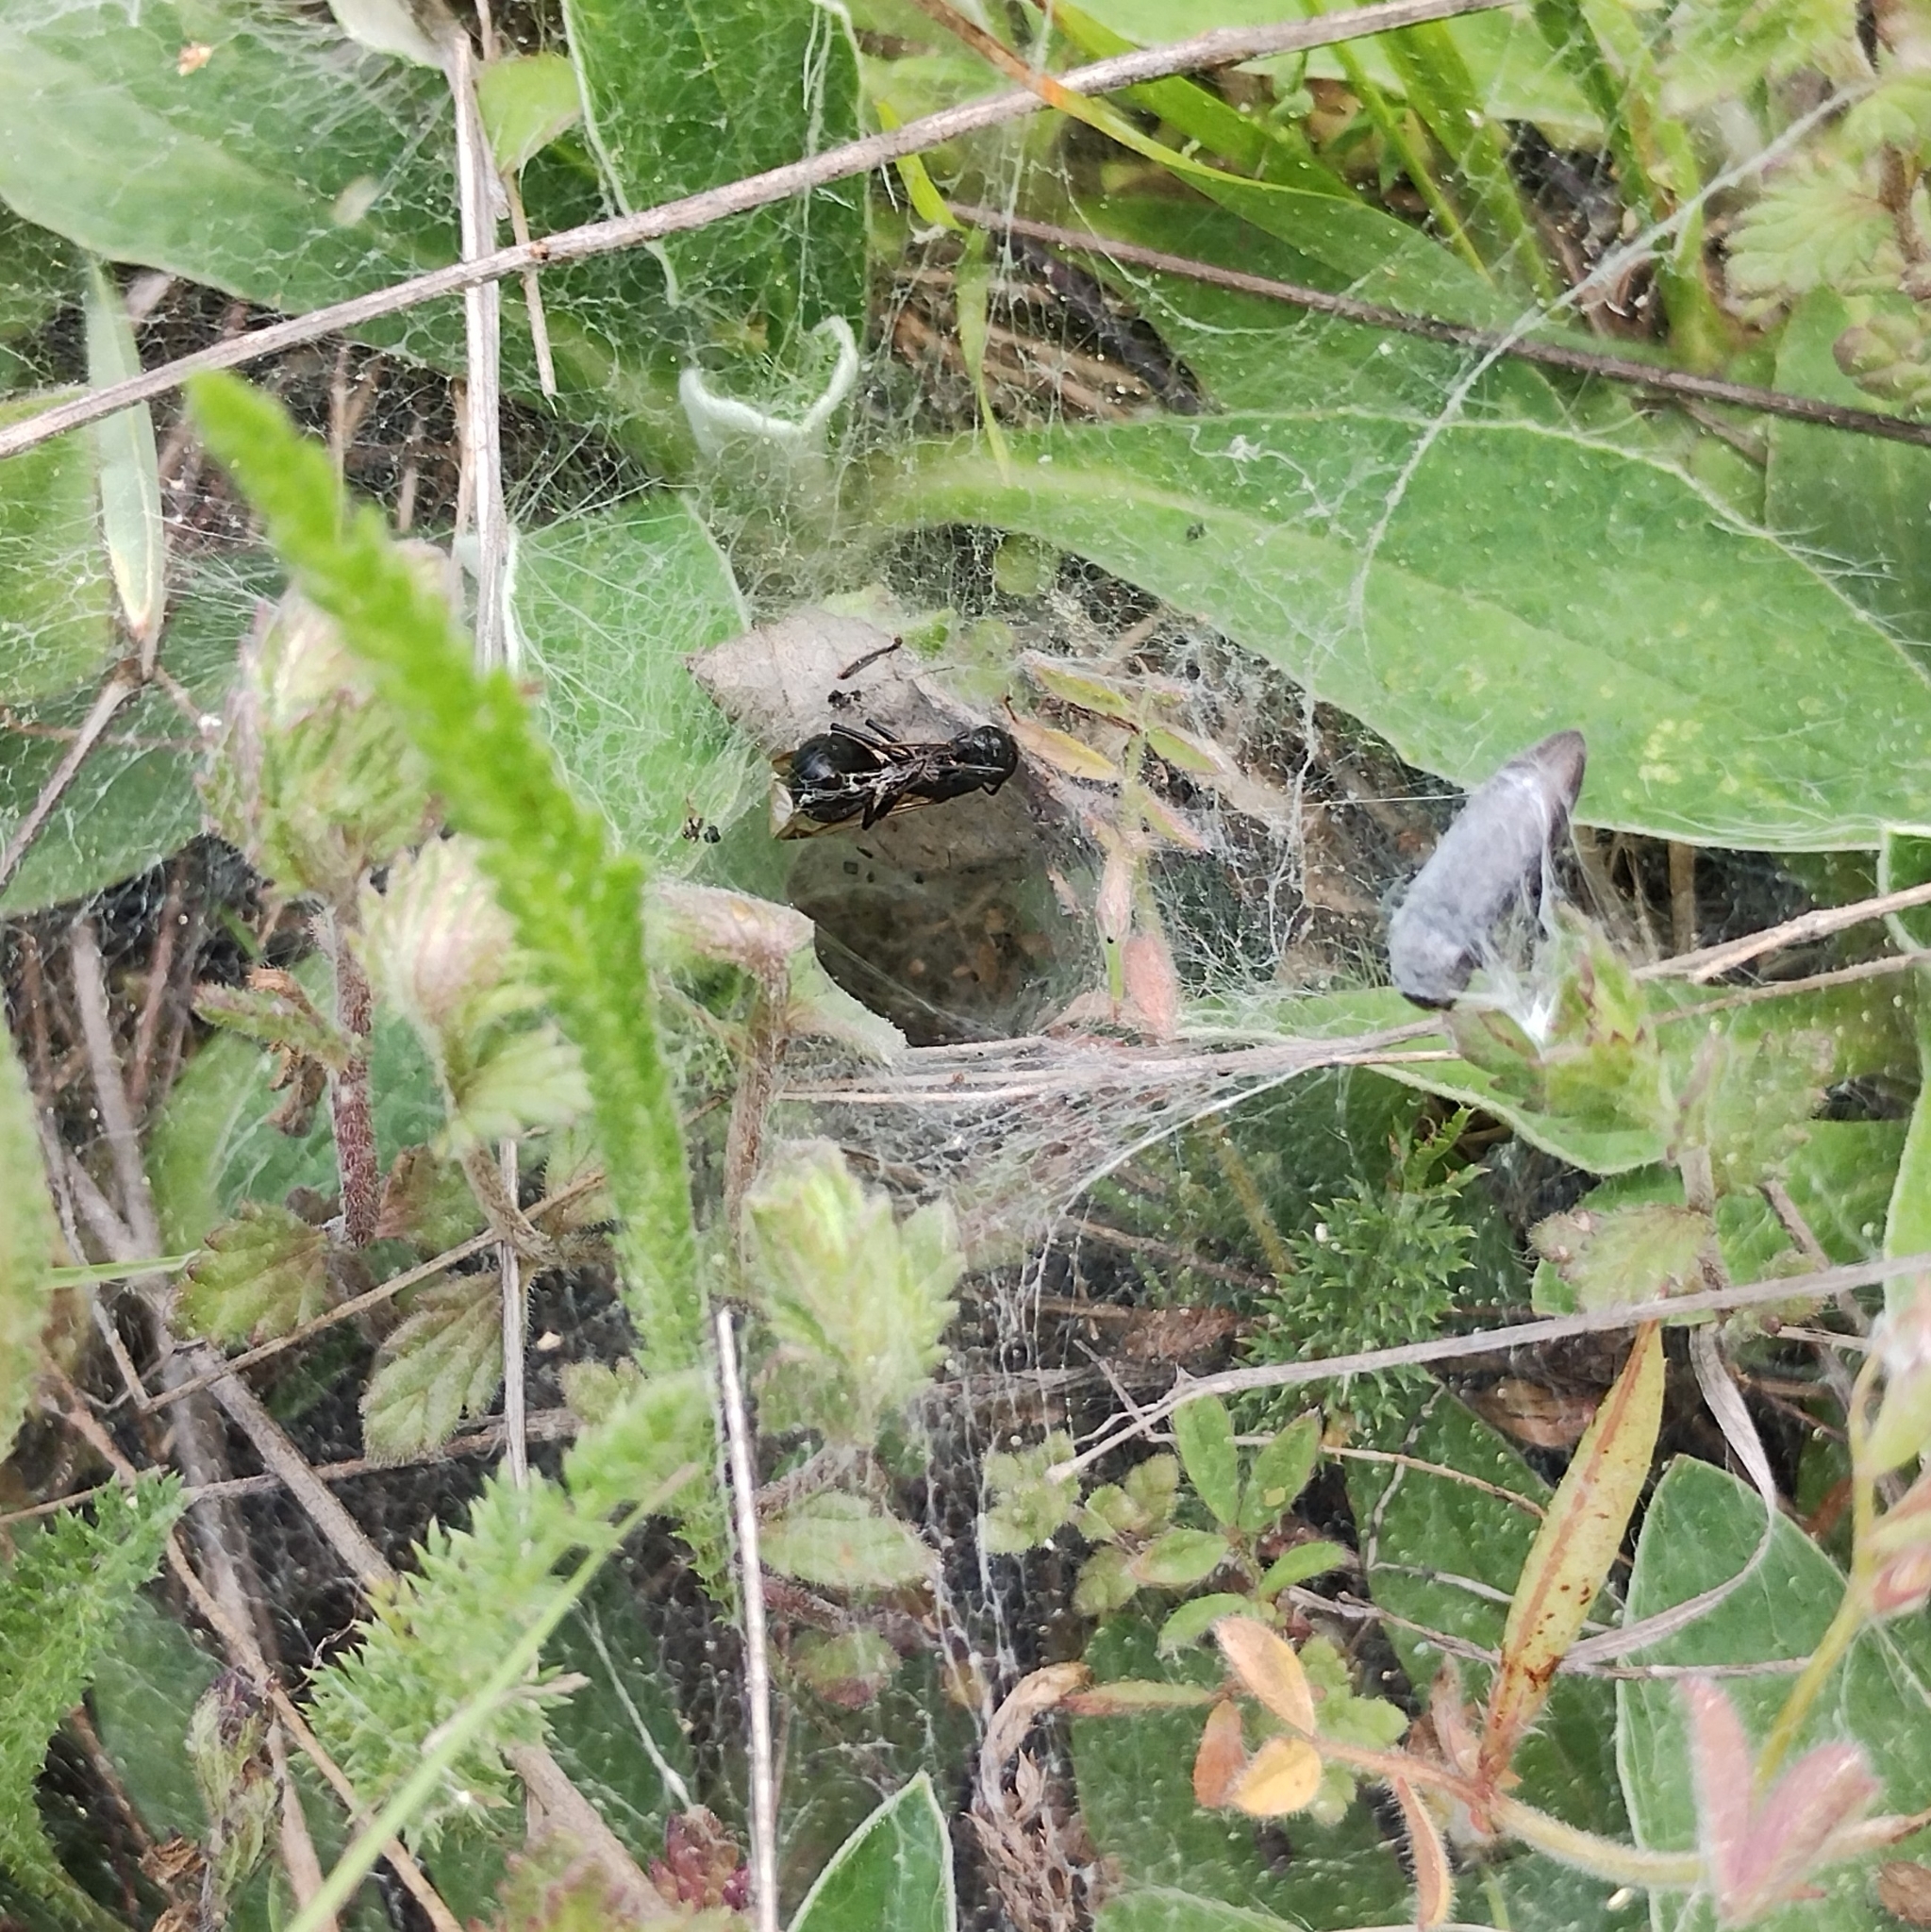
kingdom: Animalia
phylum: Arthropoda
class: Arachnida
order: Araneae
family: Agelenidae
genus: Agelena
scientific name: Agelena labyrinthica
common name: Labyrinth spider
